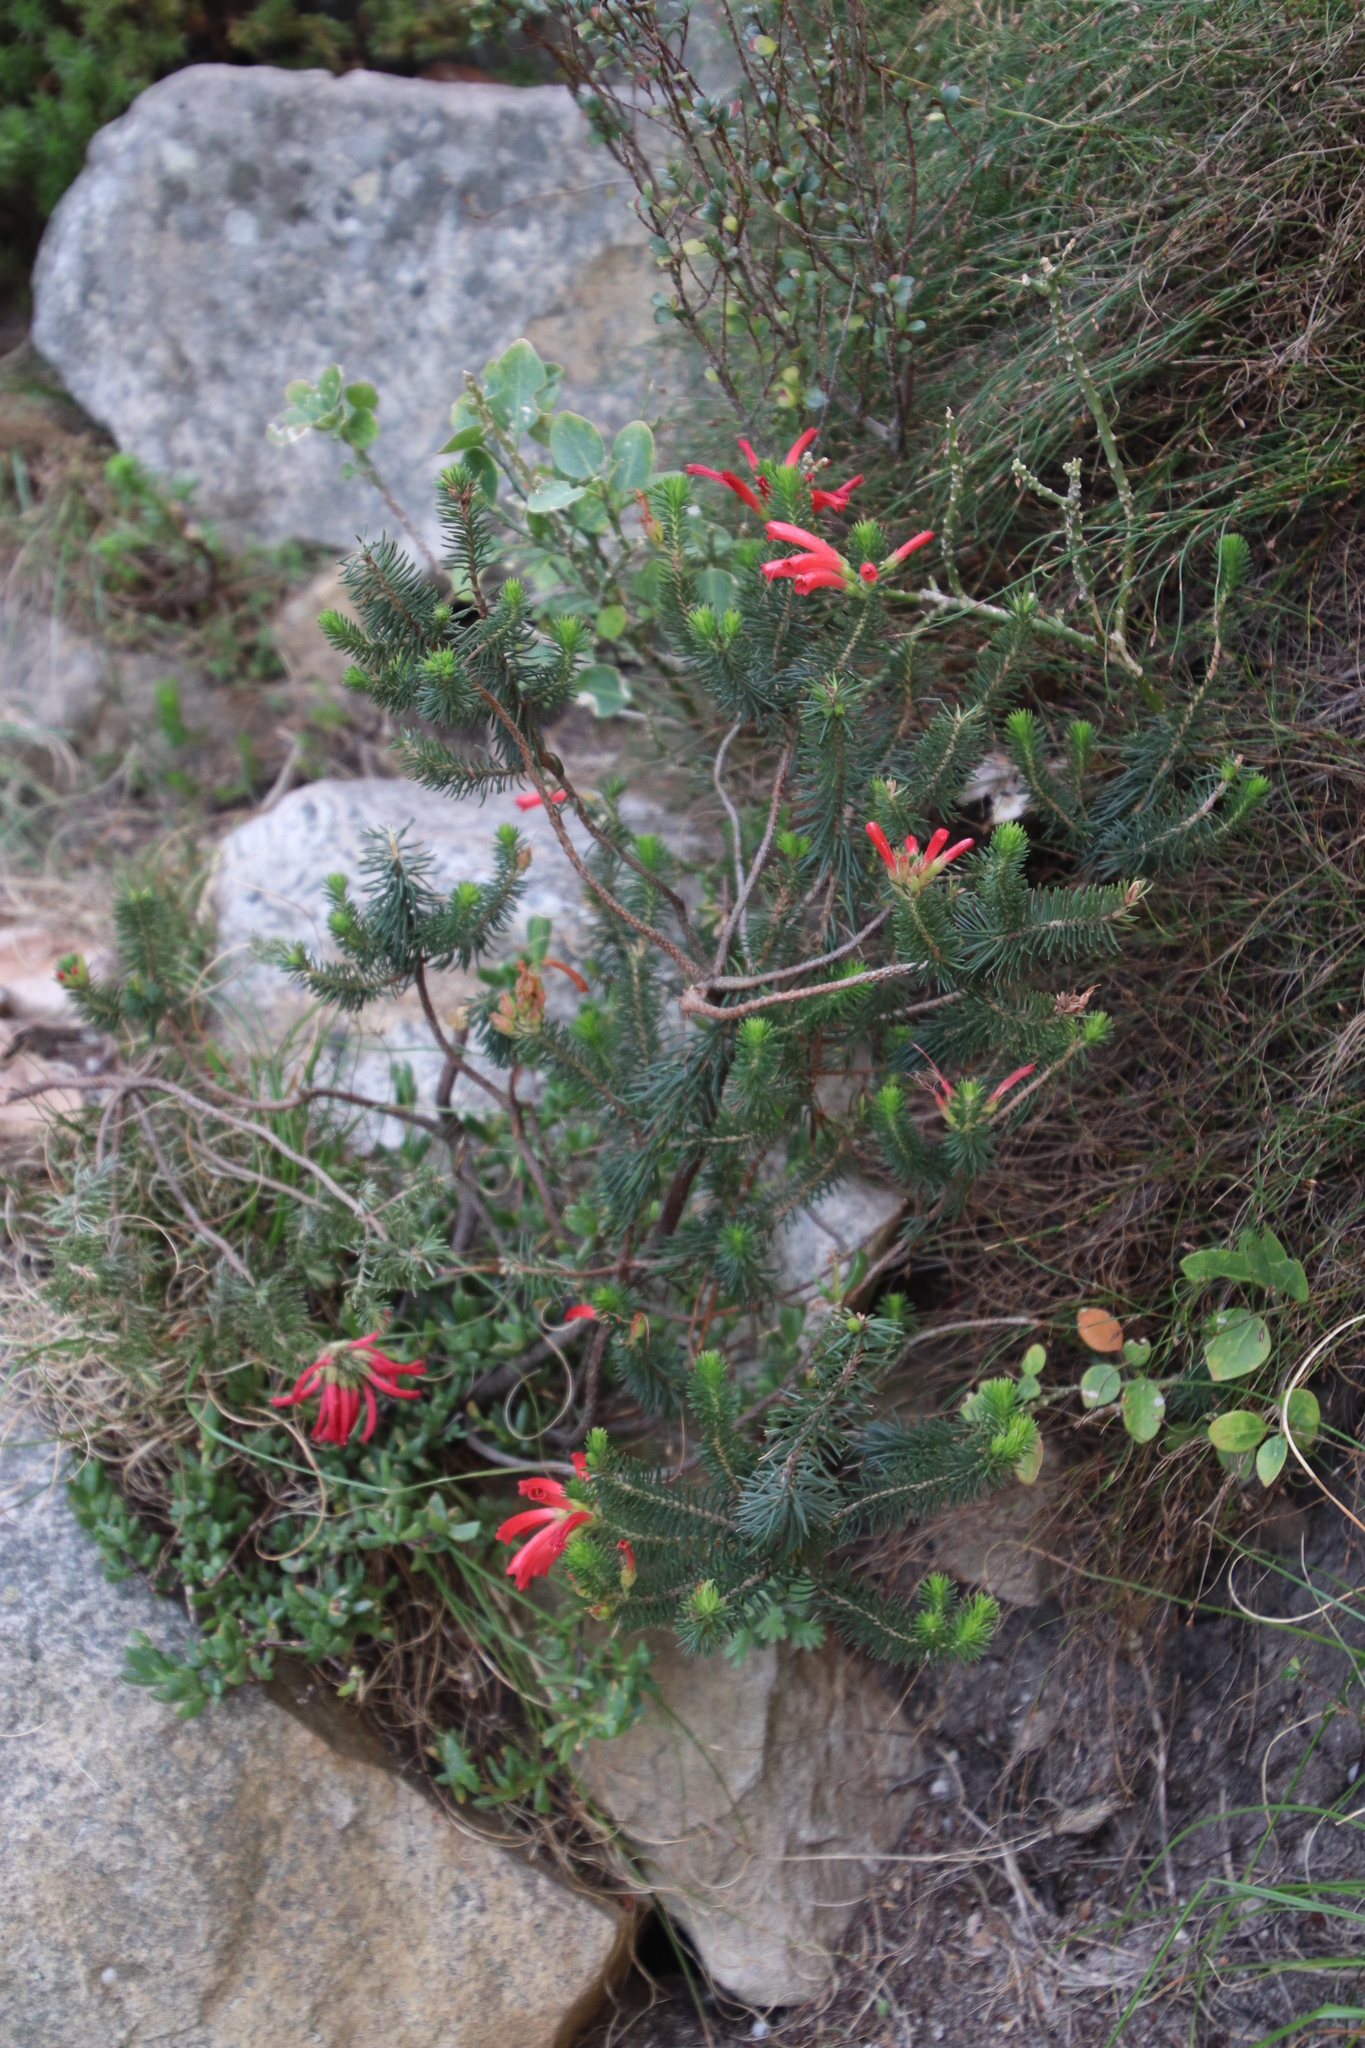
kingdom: Plantae
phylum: Tracheophyta
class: Magnoliopsida
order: Ericales
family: Ericaceae
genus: Erica
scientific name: Erica abietina
